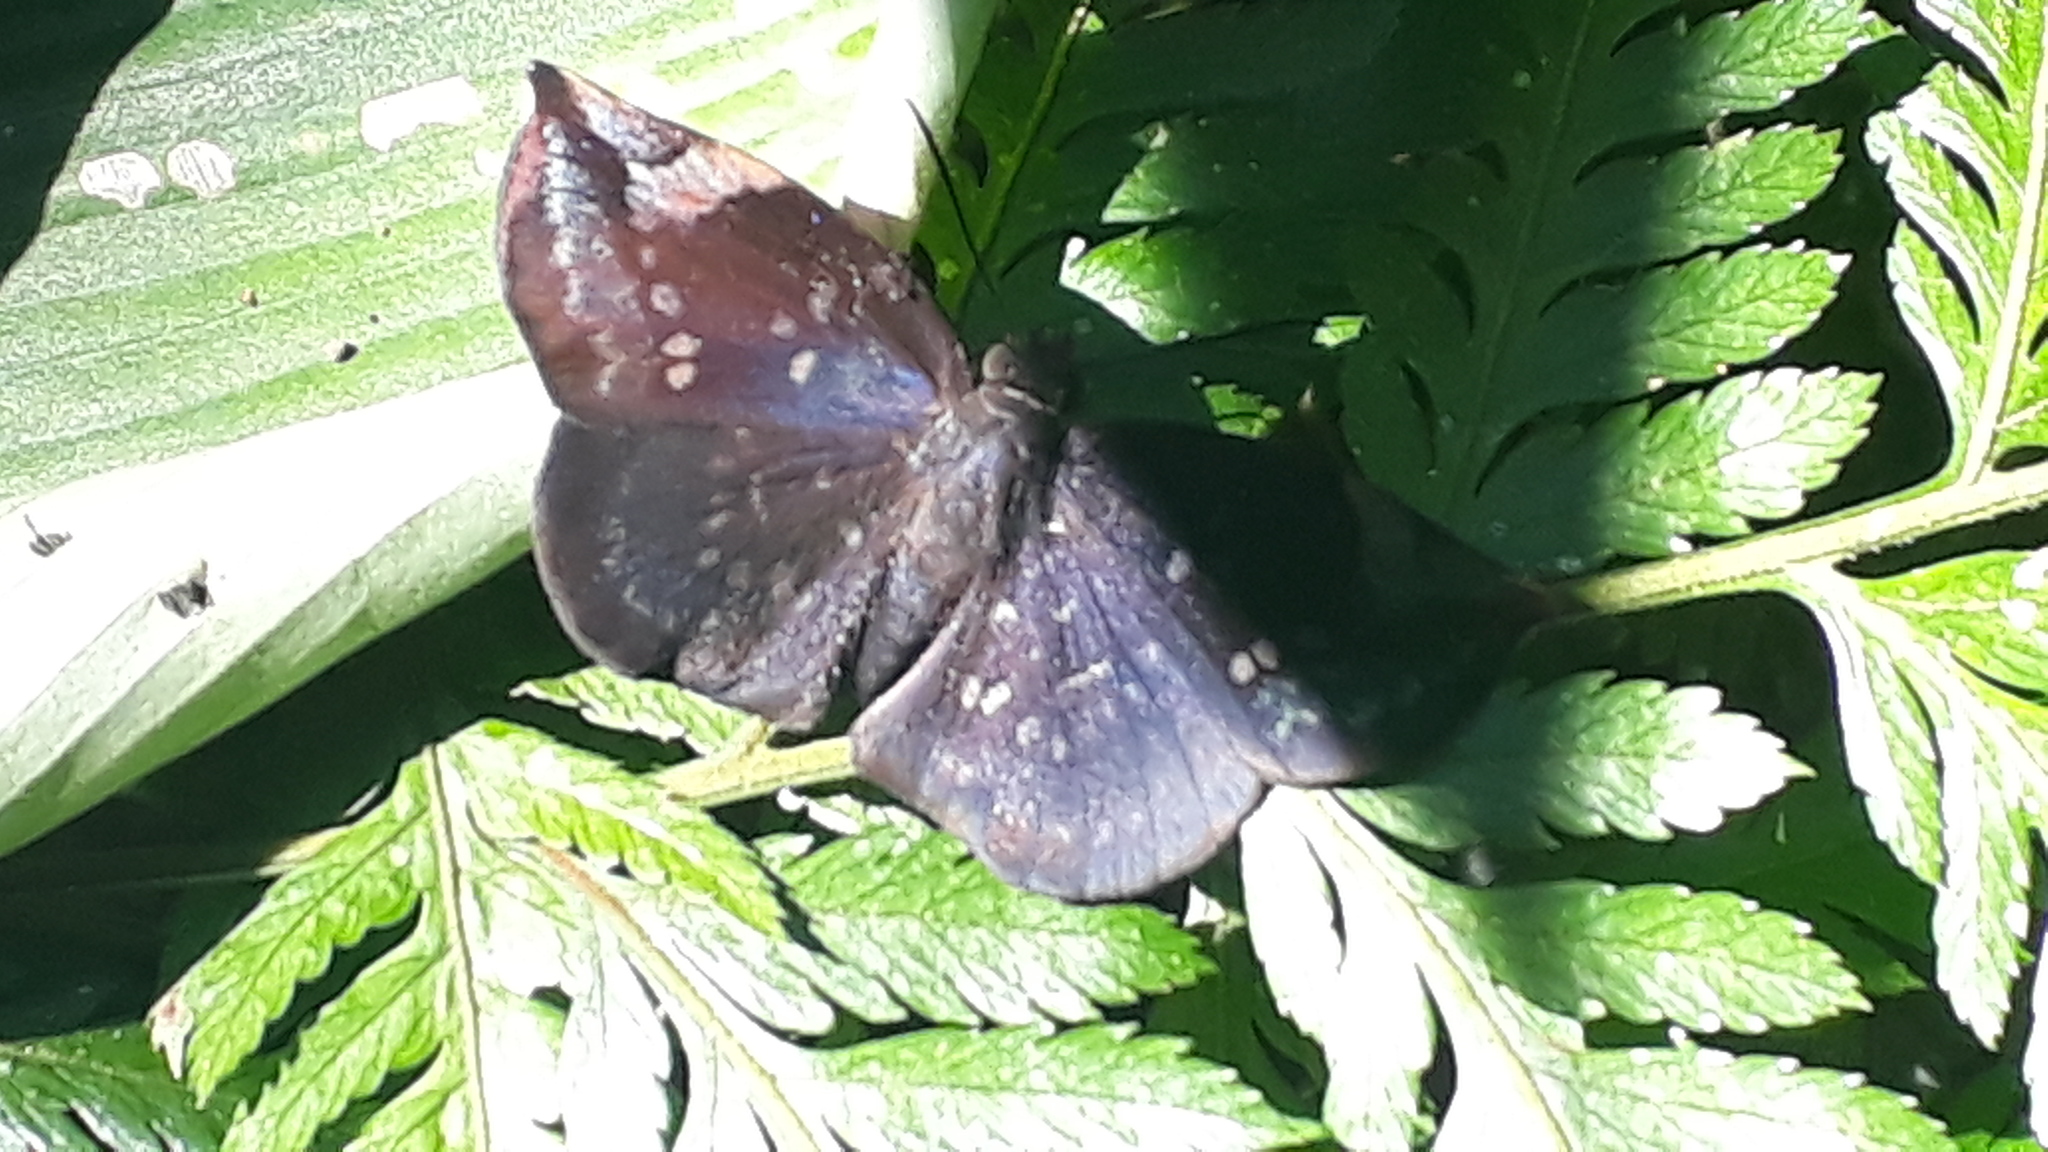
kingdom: Animalia
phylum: Arthropoda
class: Insecta
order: Lepidoptera
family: Hesperiidae
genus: Achlyodes
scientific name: Achlyodes thraso
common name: Sickle-winged skipper
